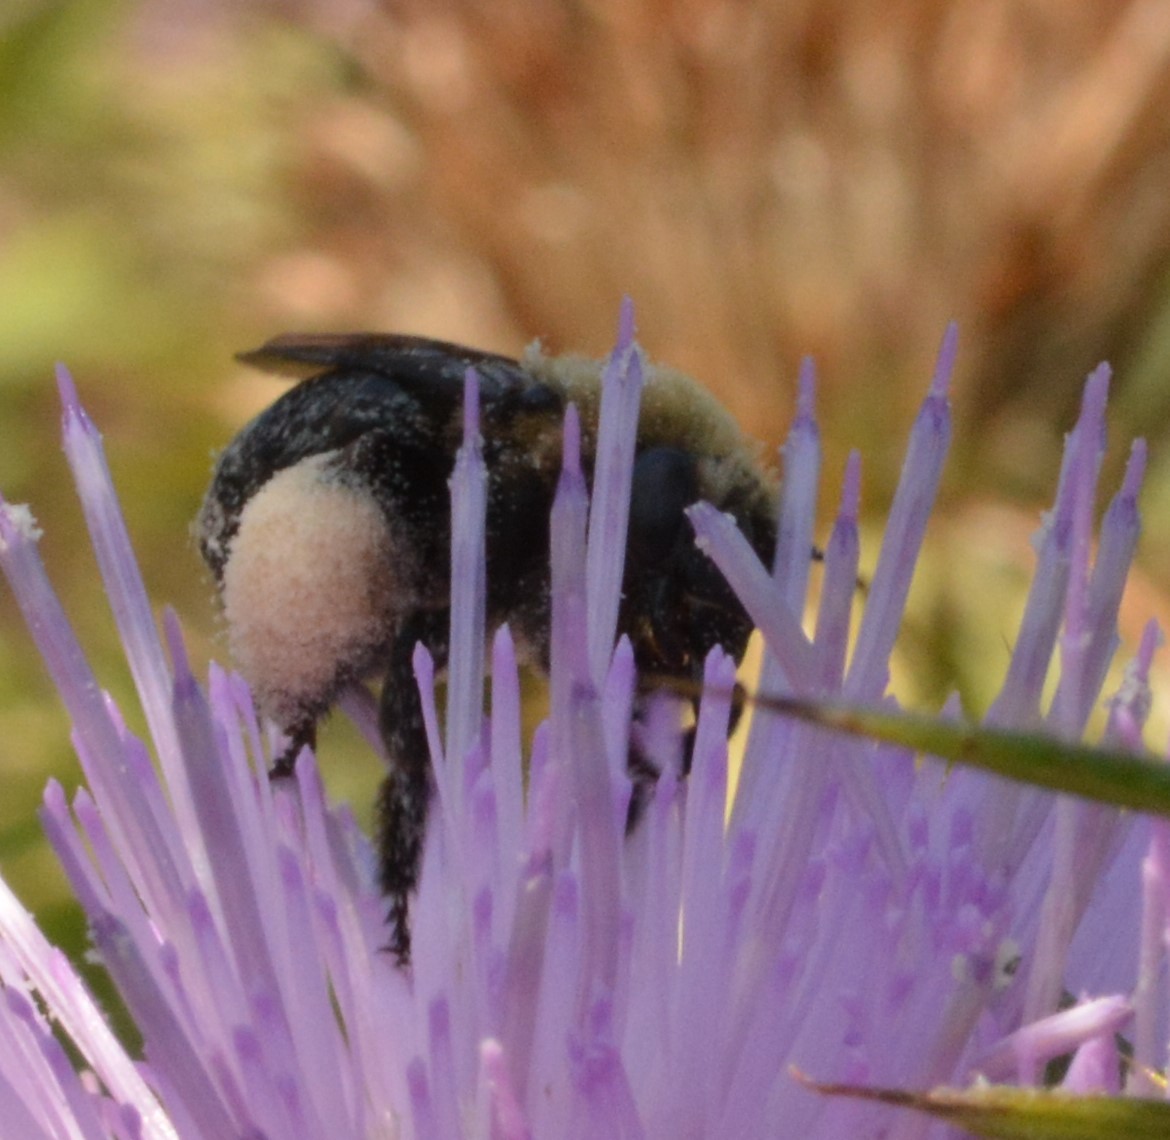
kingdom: Animalia
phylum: Arthropoda
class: Insecta
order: Hymenoptera
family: Apidae
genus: Melissodes
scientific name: Melissodes desponsus
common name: Thistle long-horned bee
